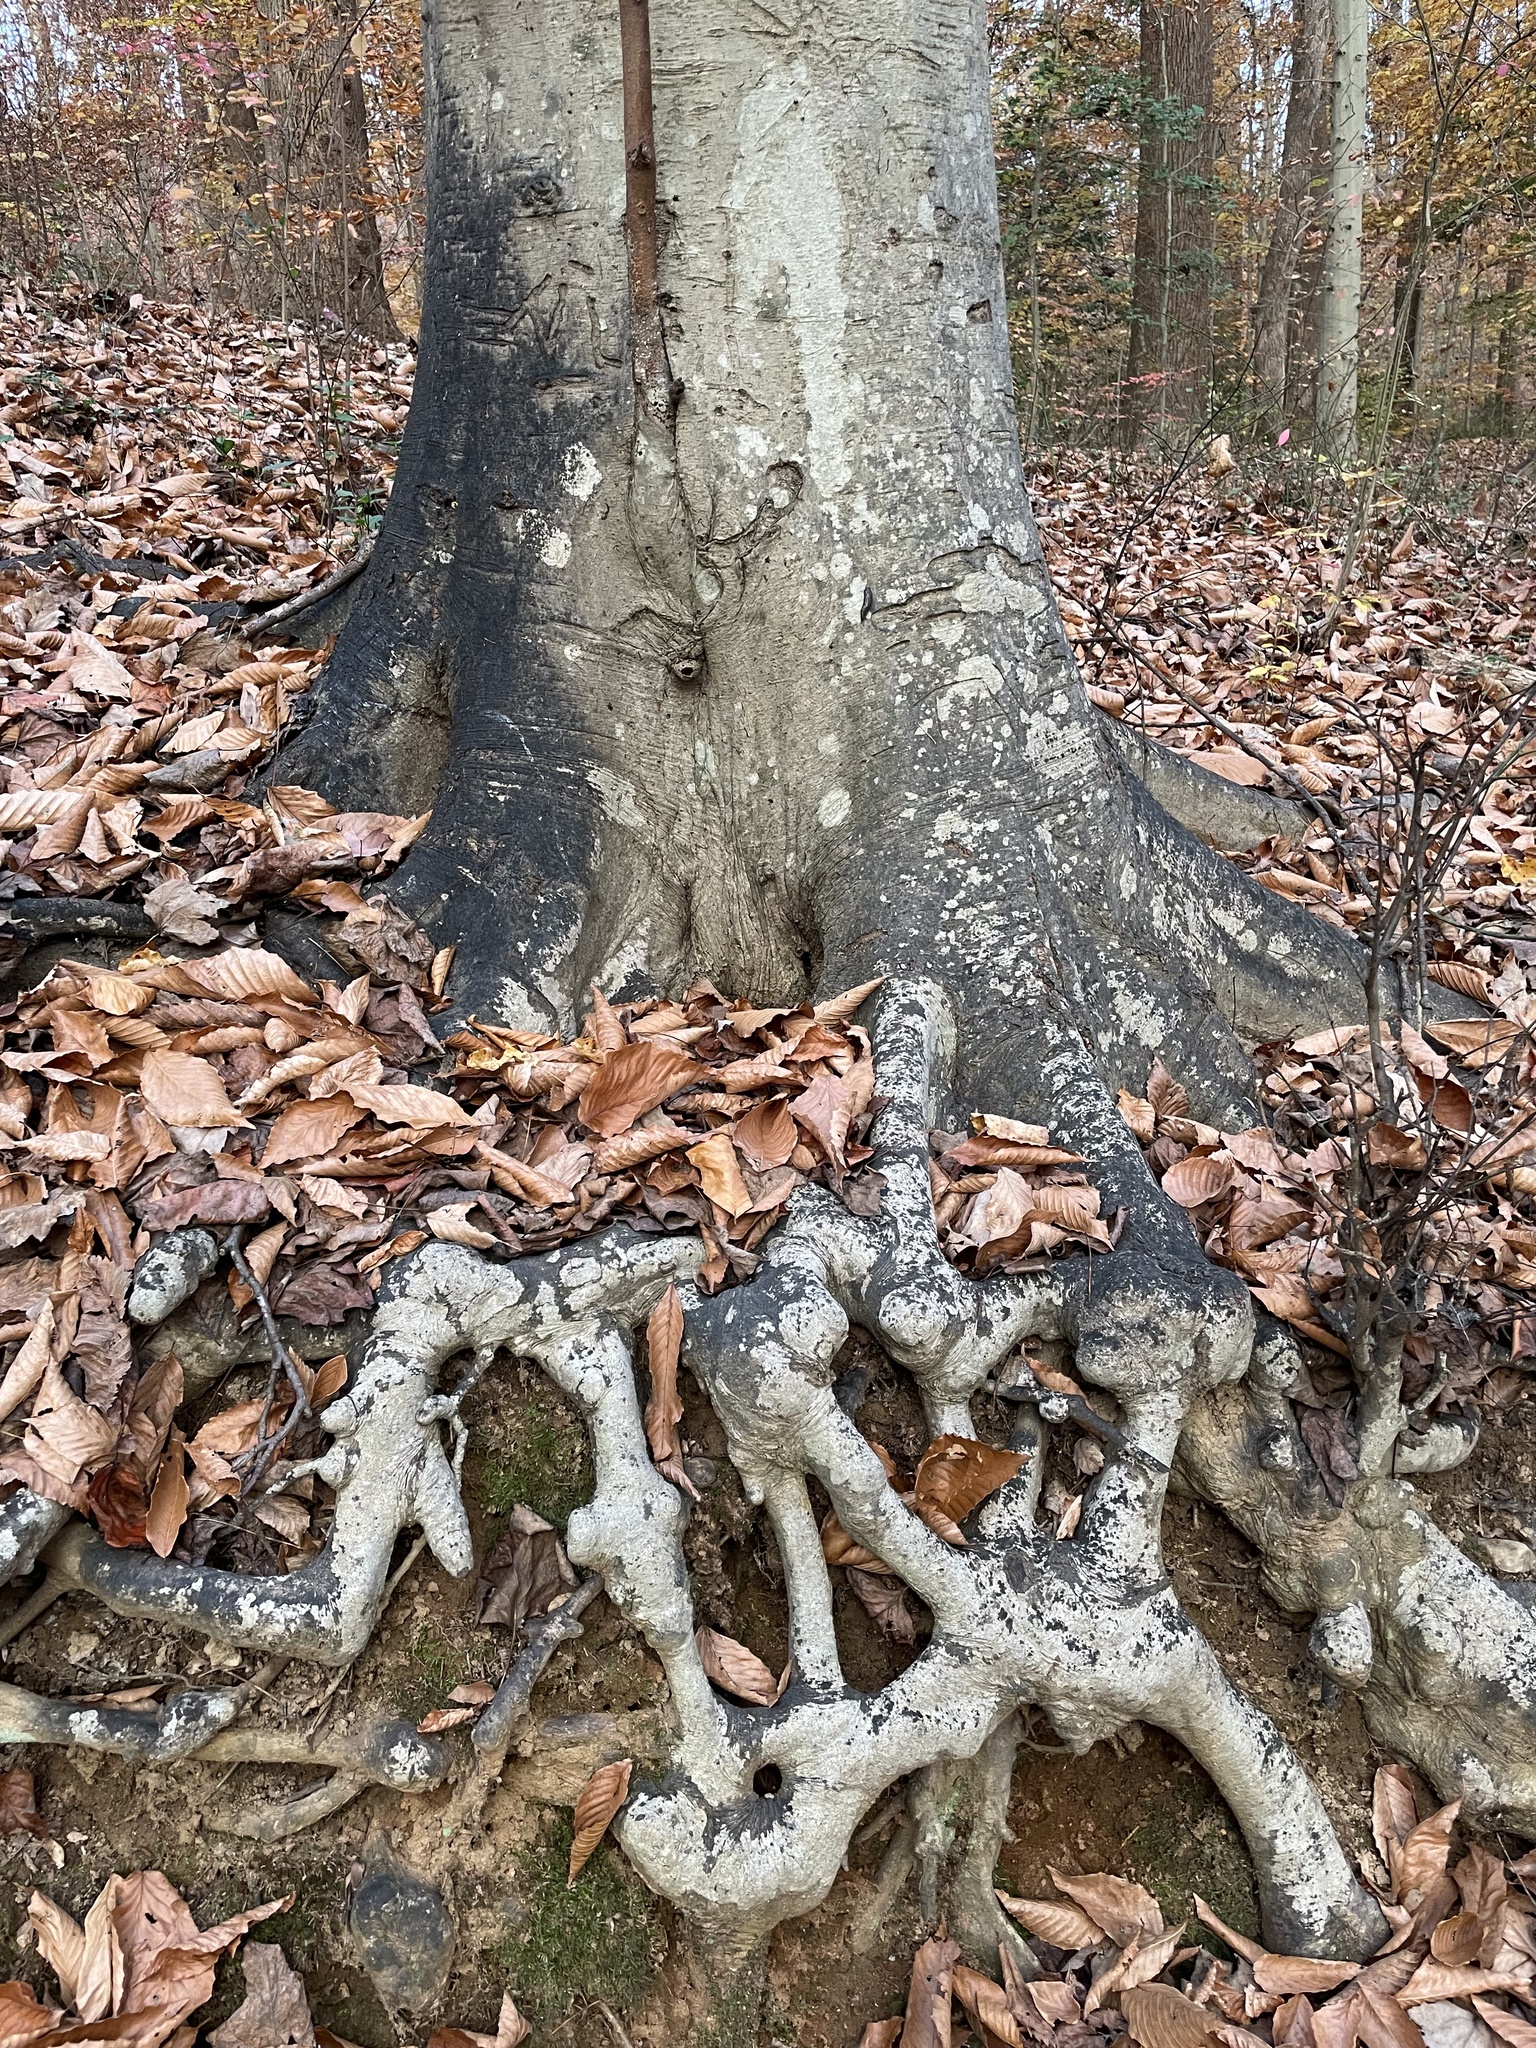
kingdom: Plantae
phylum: Tracheophyta
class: Magnoliopsida
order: Fagales
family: Fagaceae
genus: Fagus
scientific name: Fagus grandifolia
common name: American beech
